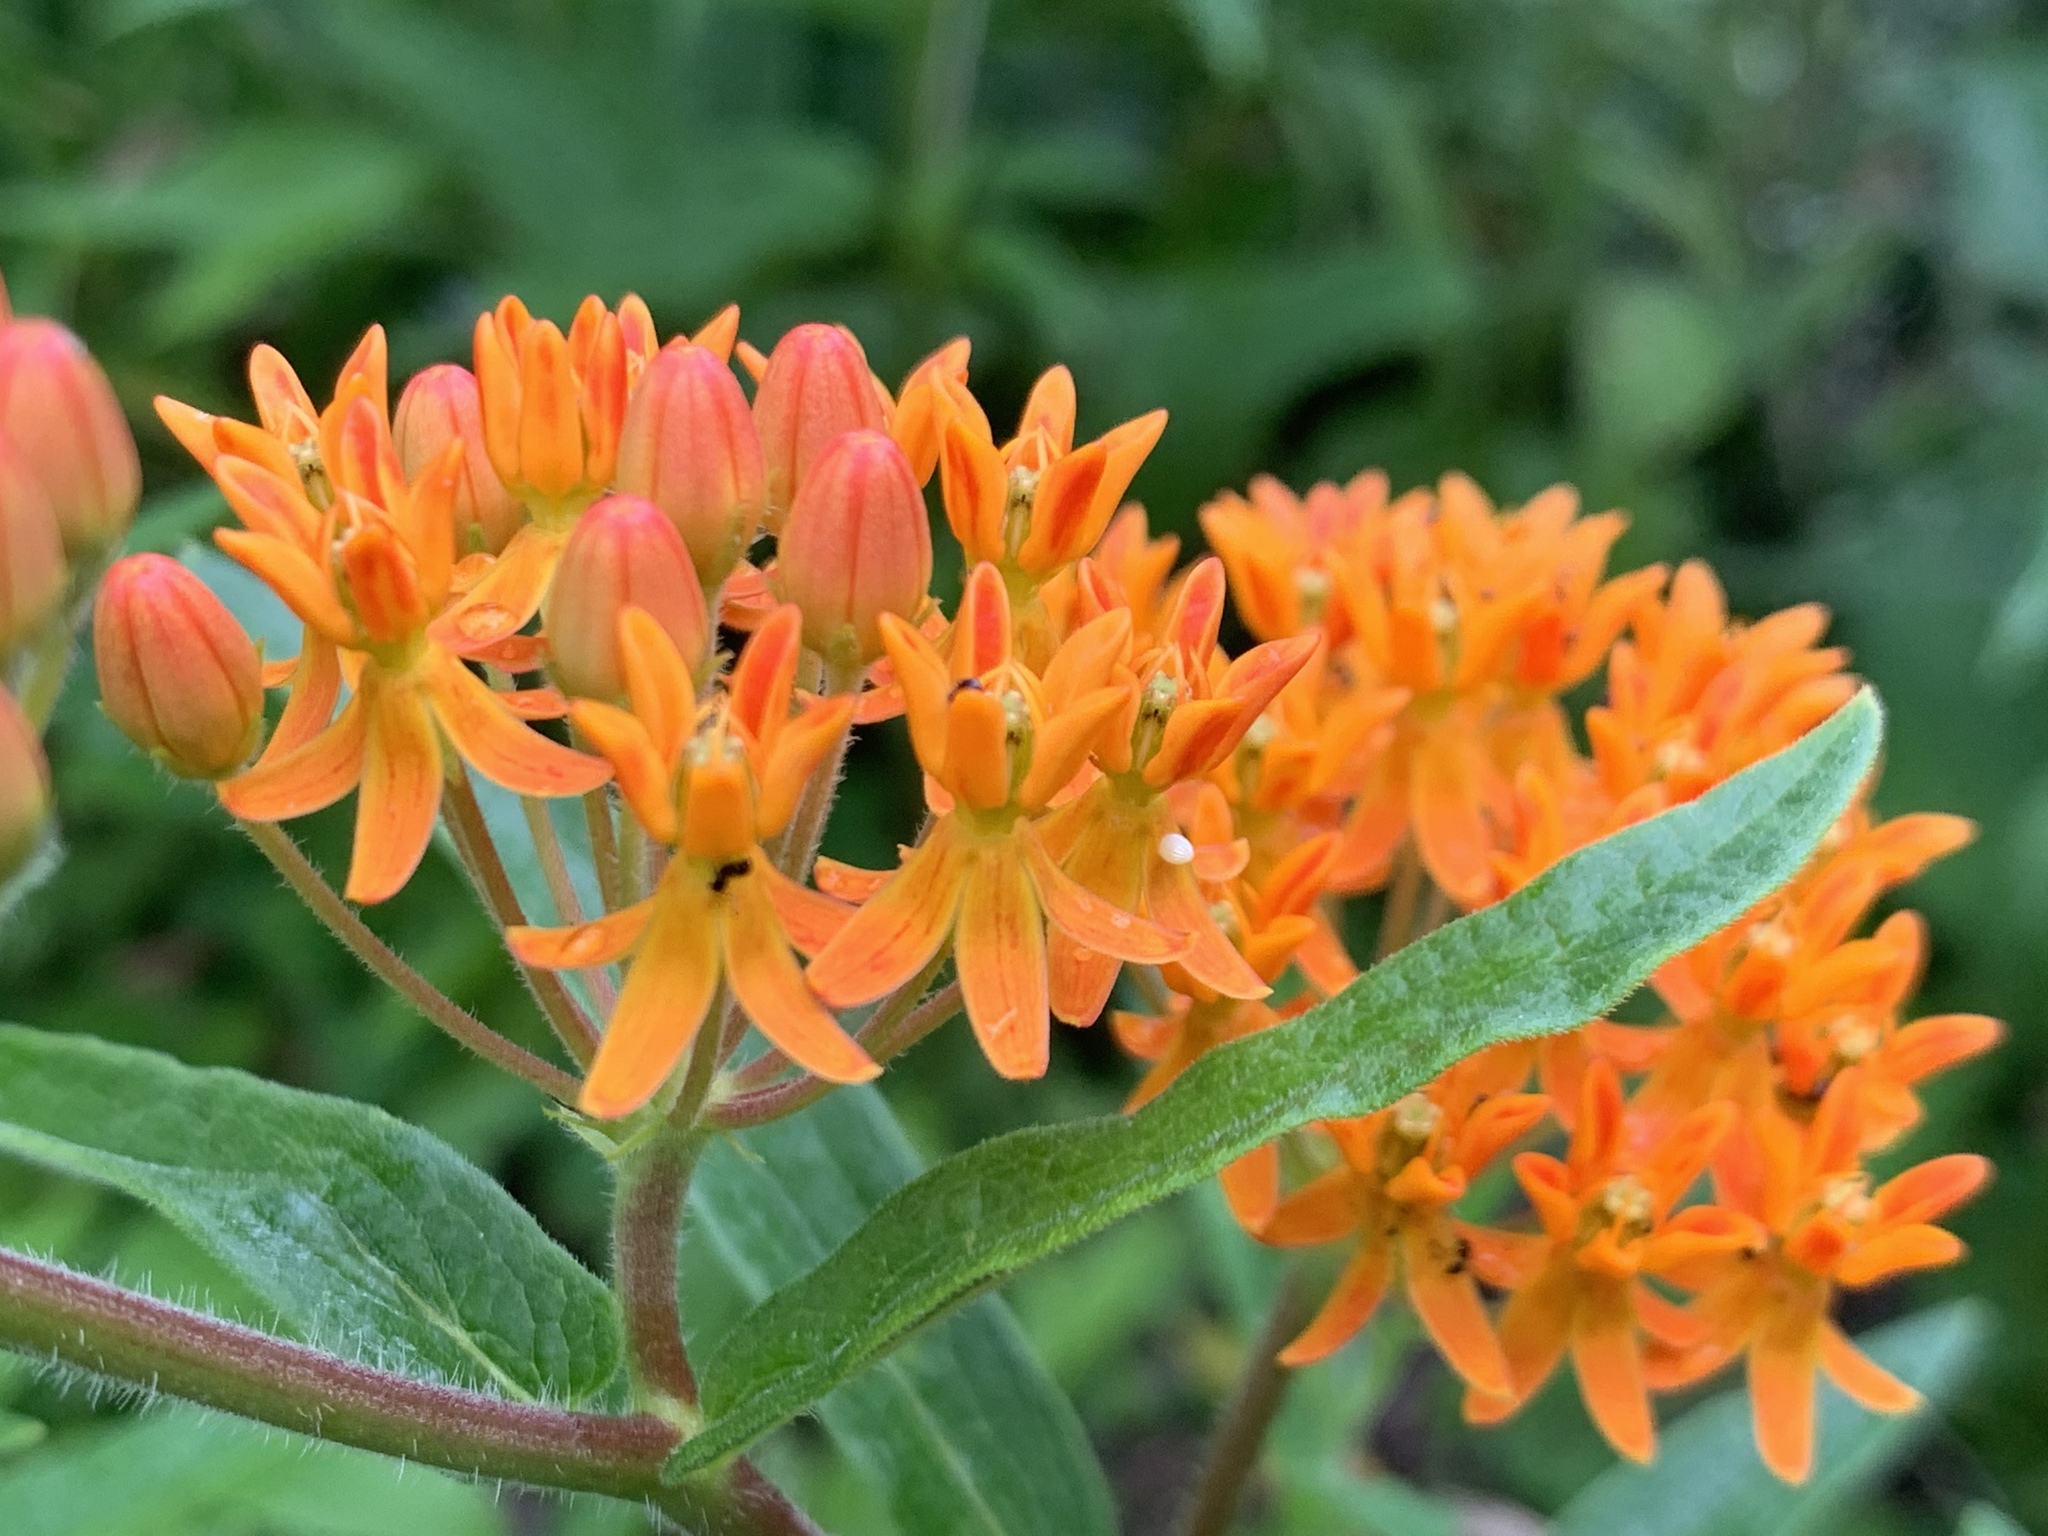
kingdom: Animalia
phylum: Arthropoda
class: Insecta
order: Lepidoptera
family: Nymphalidae
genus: Danaus
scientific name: Danaus plexippus
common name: Monarch
